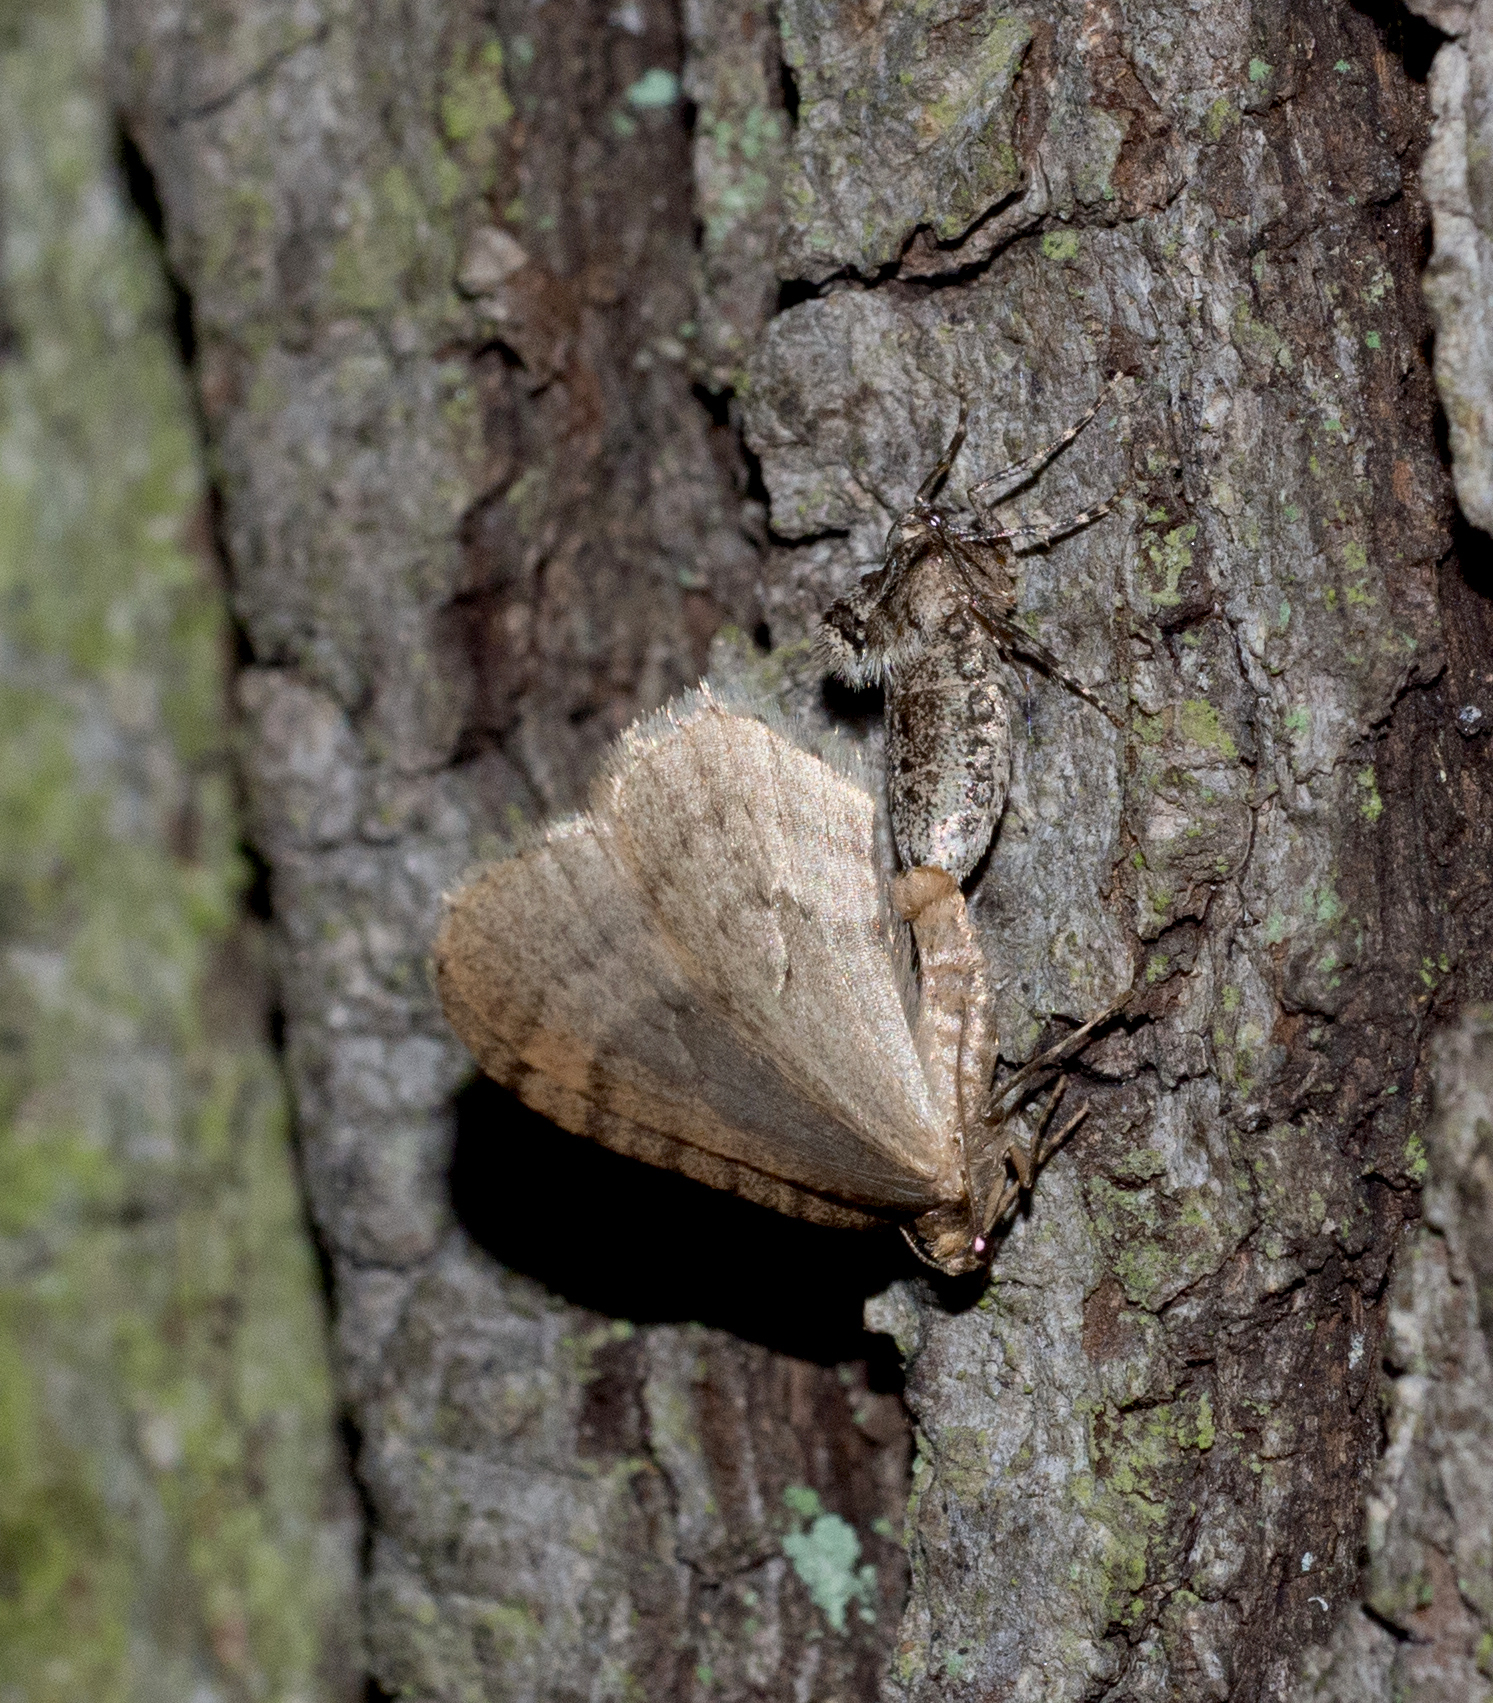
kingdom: Animalia
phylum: Arthropoda
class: Insecta
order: Lepidoptera
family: Geometridae
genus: Operophtera
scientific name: Operophtera brumata
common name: Winter moth
